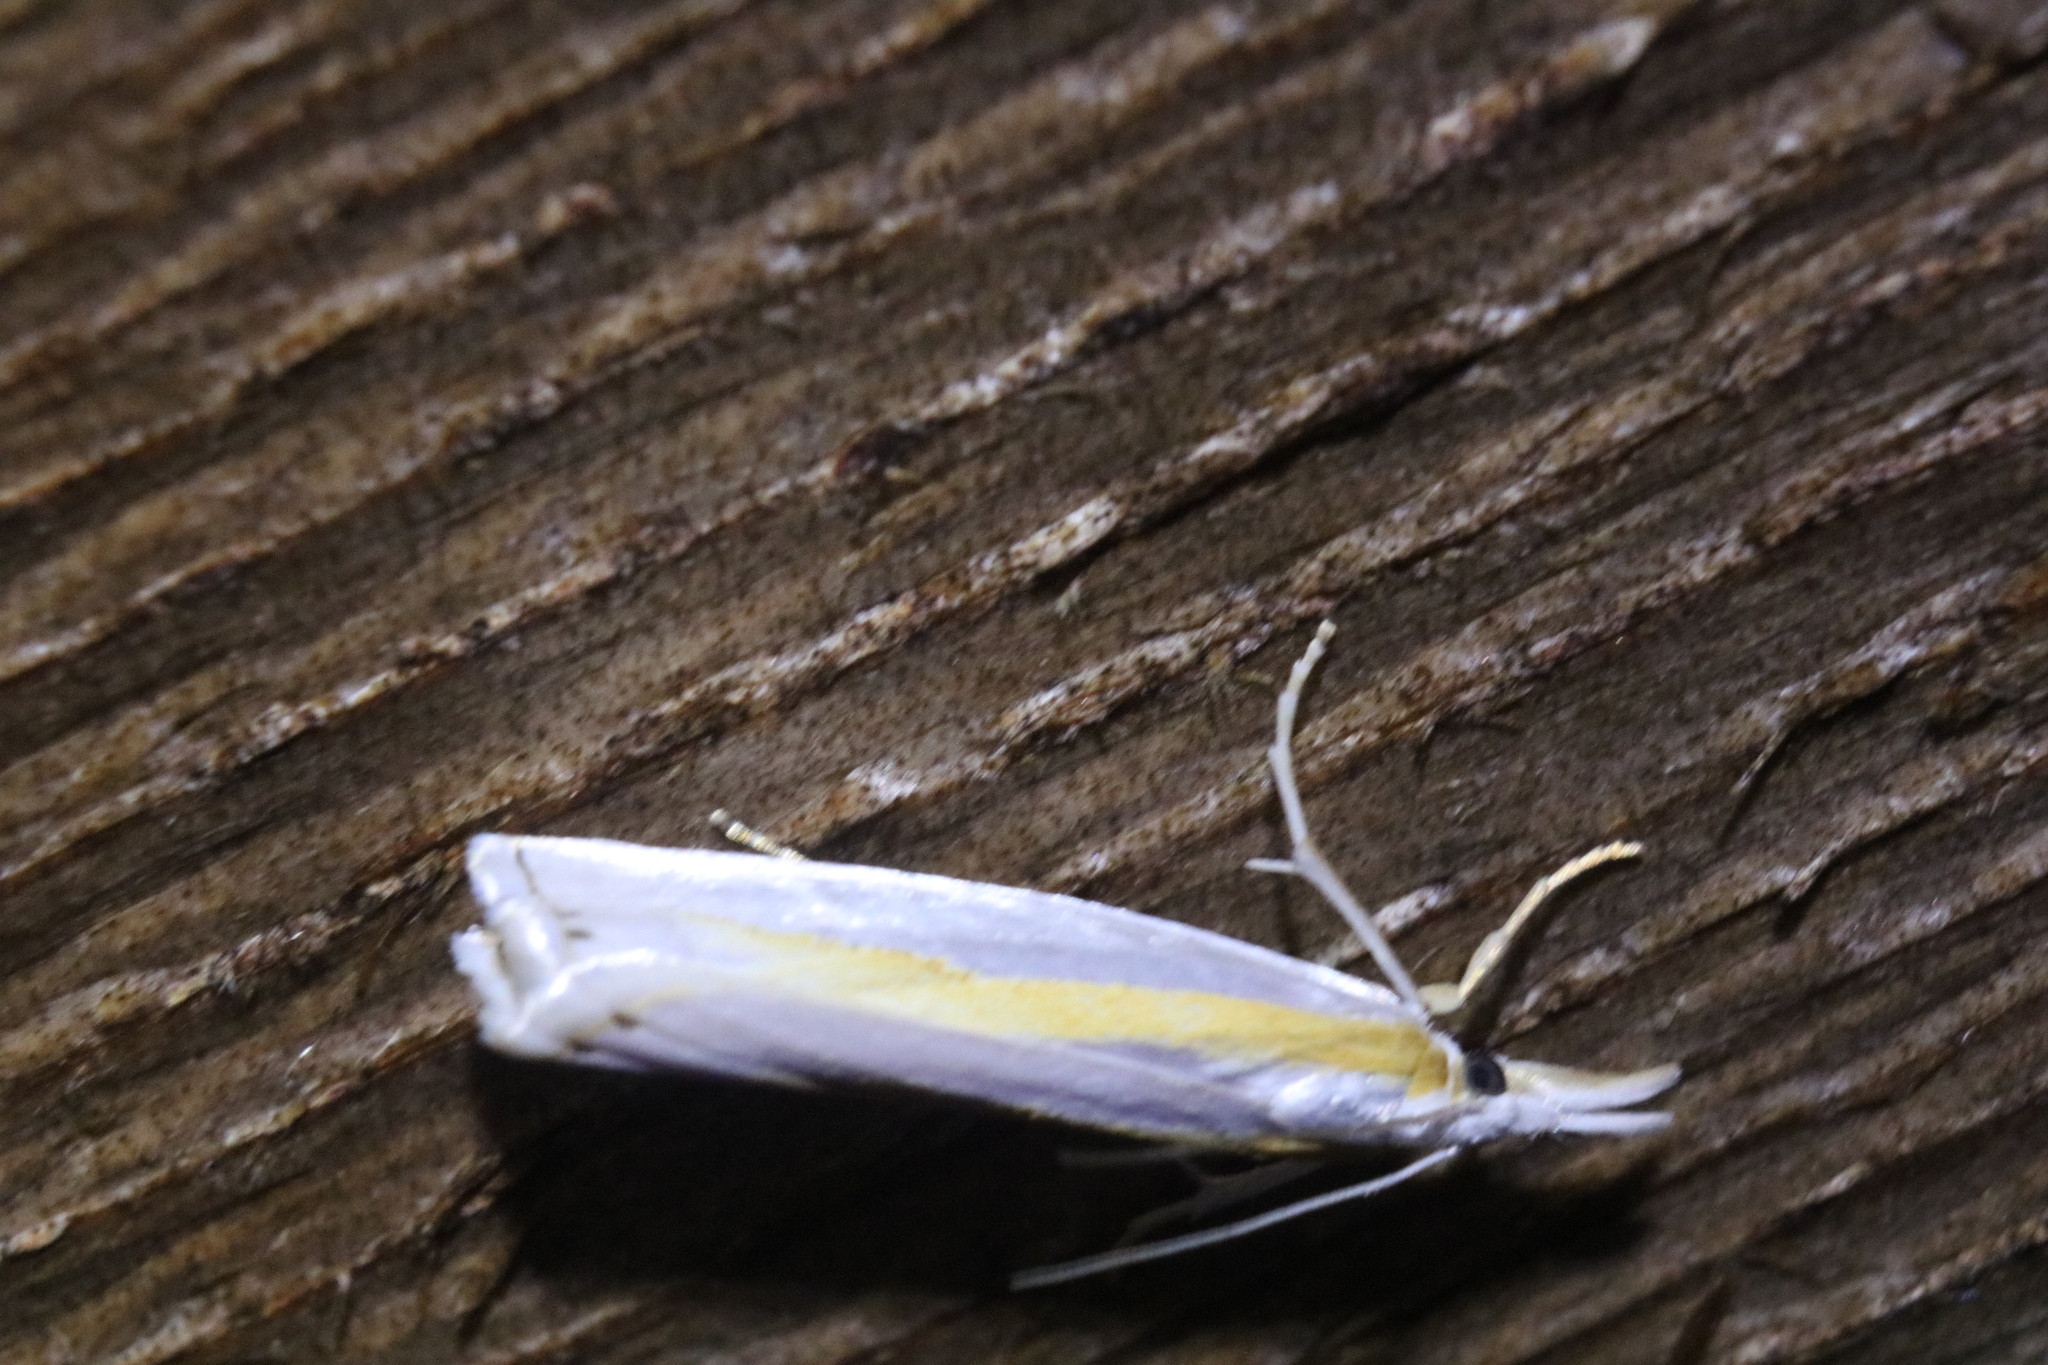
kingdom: Animalia
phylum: Arthropoda
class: Insecta
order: Lepidoptera
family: Crambidae
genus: Crambus
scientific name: Crambus girardellus
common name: Girard's grass-veneer
